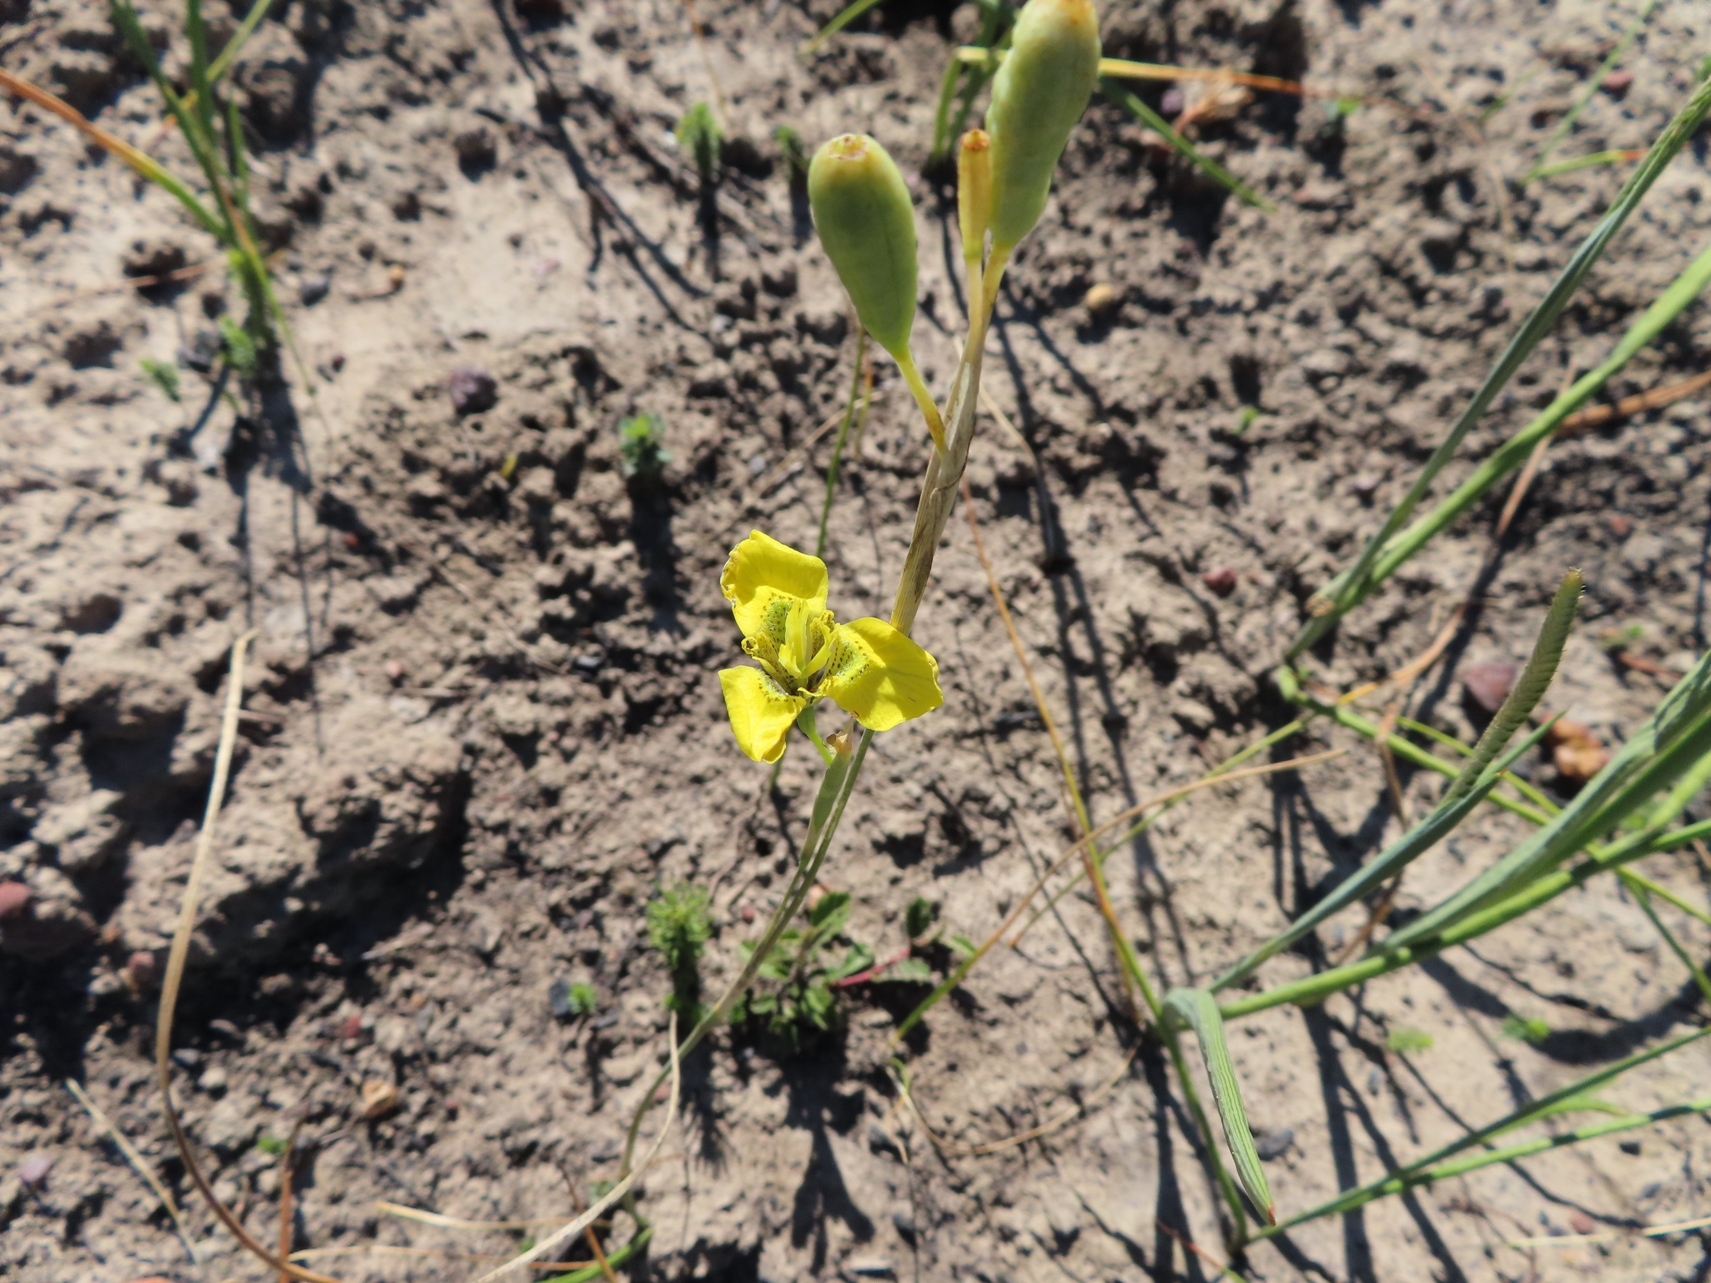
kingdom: Plantae
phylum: Tracheophyta
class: Liliopsida
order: Asparagales
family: Iridaceae
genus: Moraea
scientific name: Moraea bellendenii
